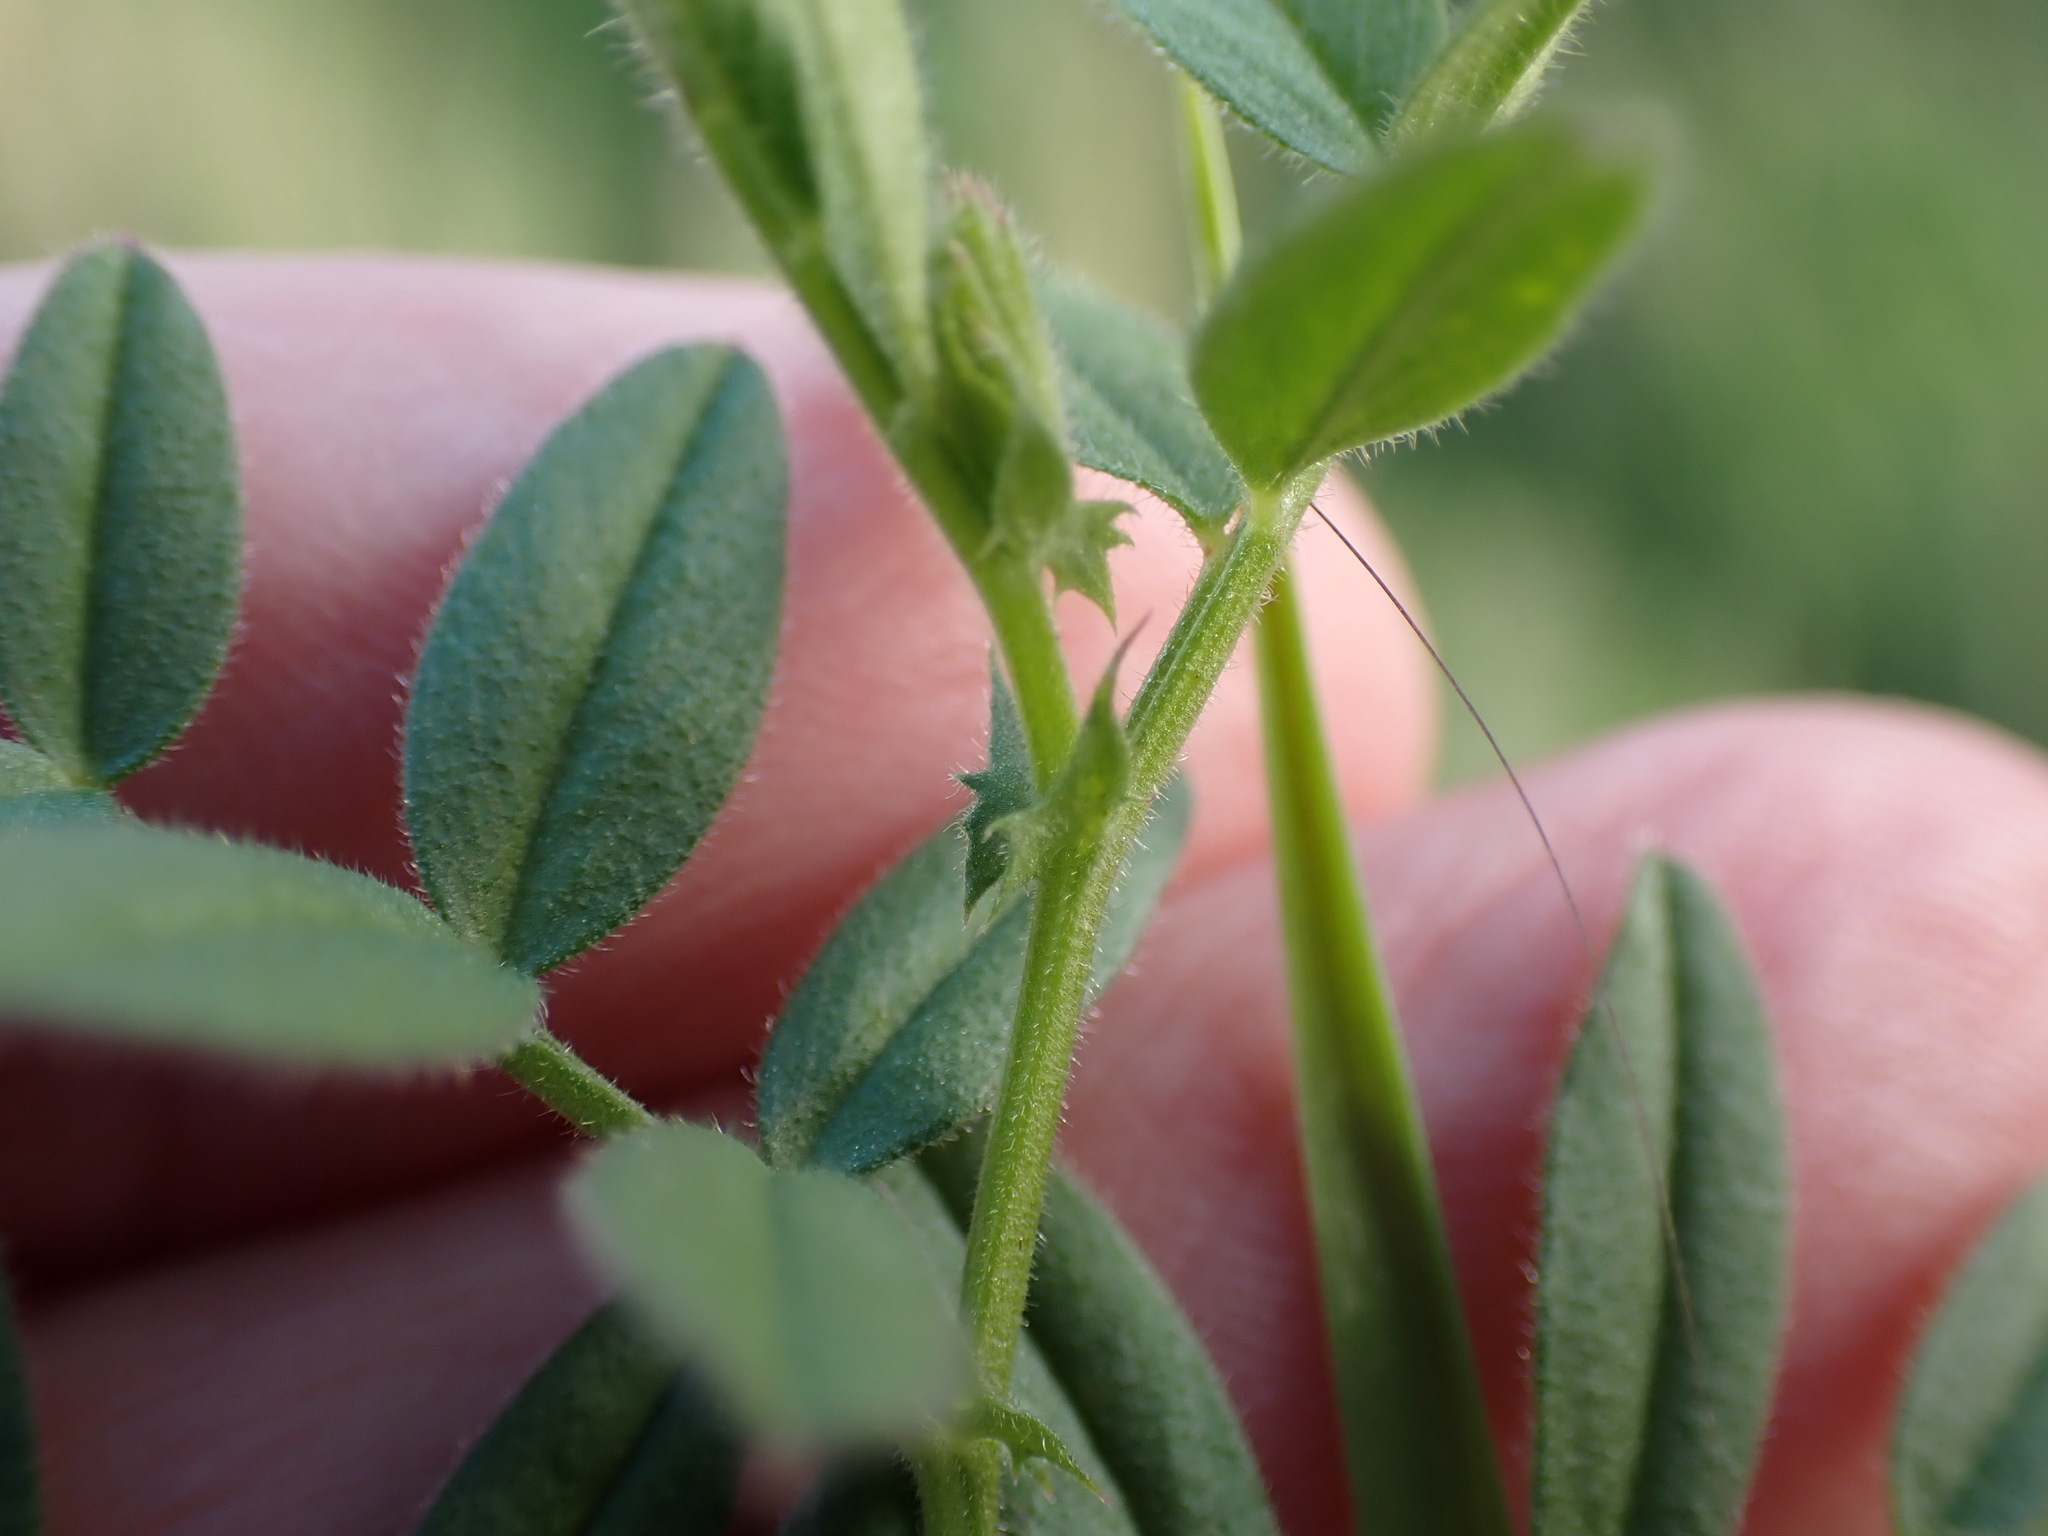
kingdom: Plantae
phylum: Tracheophyta
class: Magnoliopsida
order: Fabales
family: Fabaceae
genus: Vicia
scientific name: Vicia sativa
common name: Garden vetch
